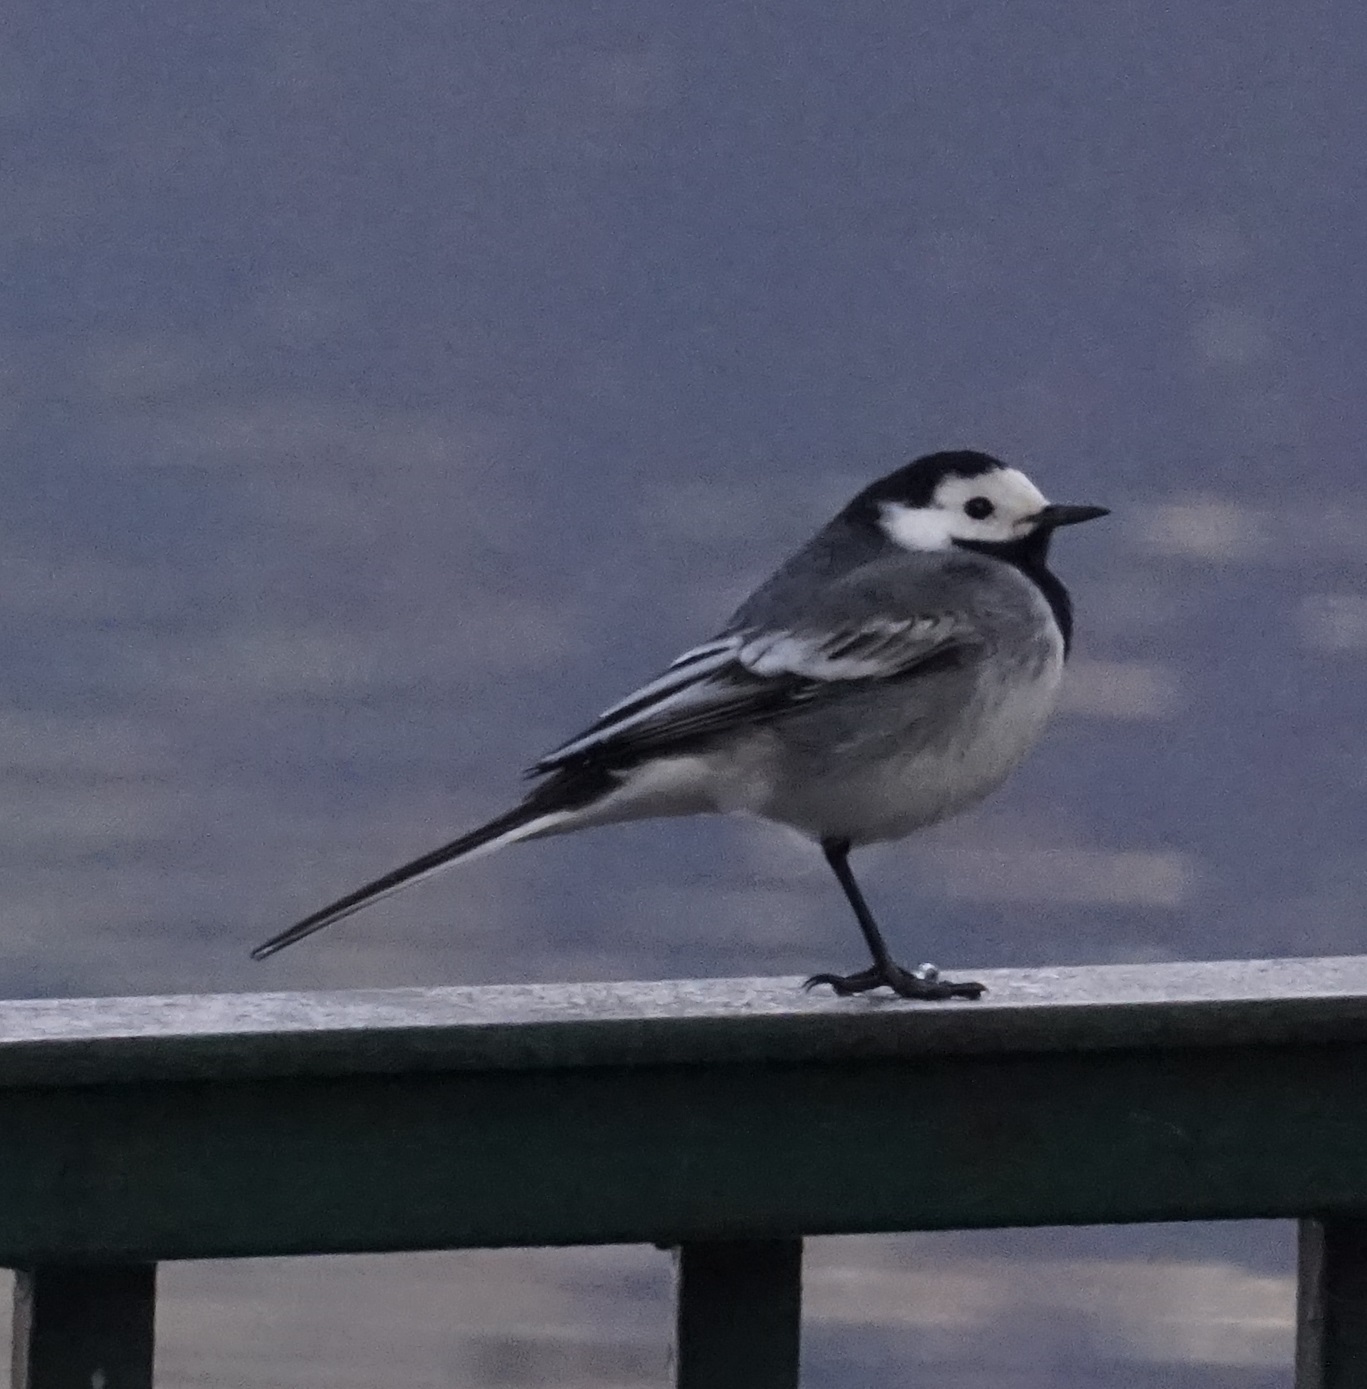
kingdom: Animalia
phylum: Chordata
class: Aves
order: Passeriformes
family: Motacillidae
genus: Motacilla
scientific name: Motacilla alba
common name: White wagtail
